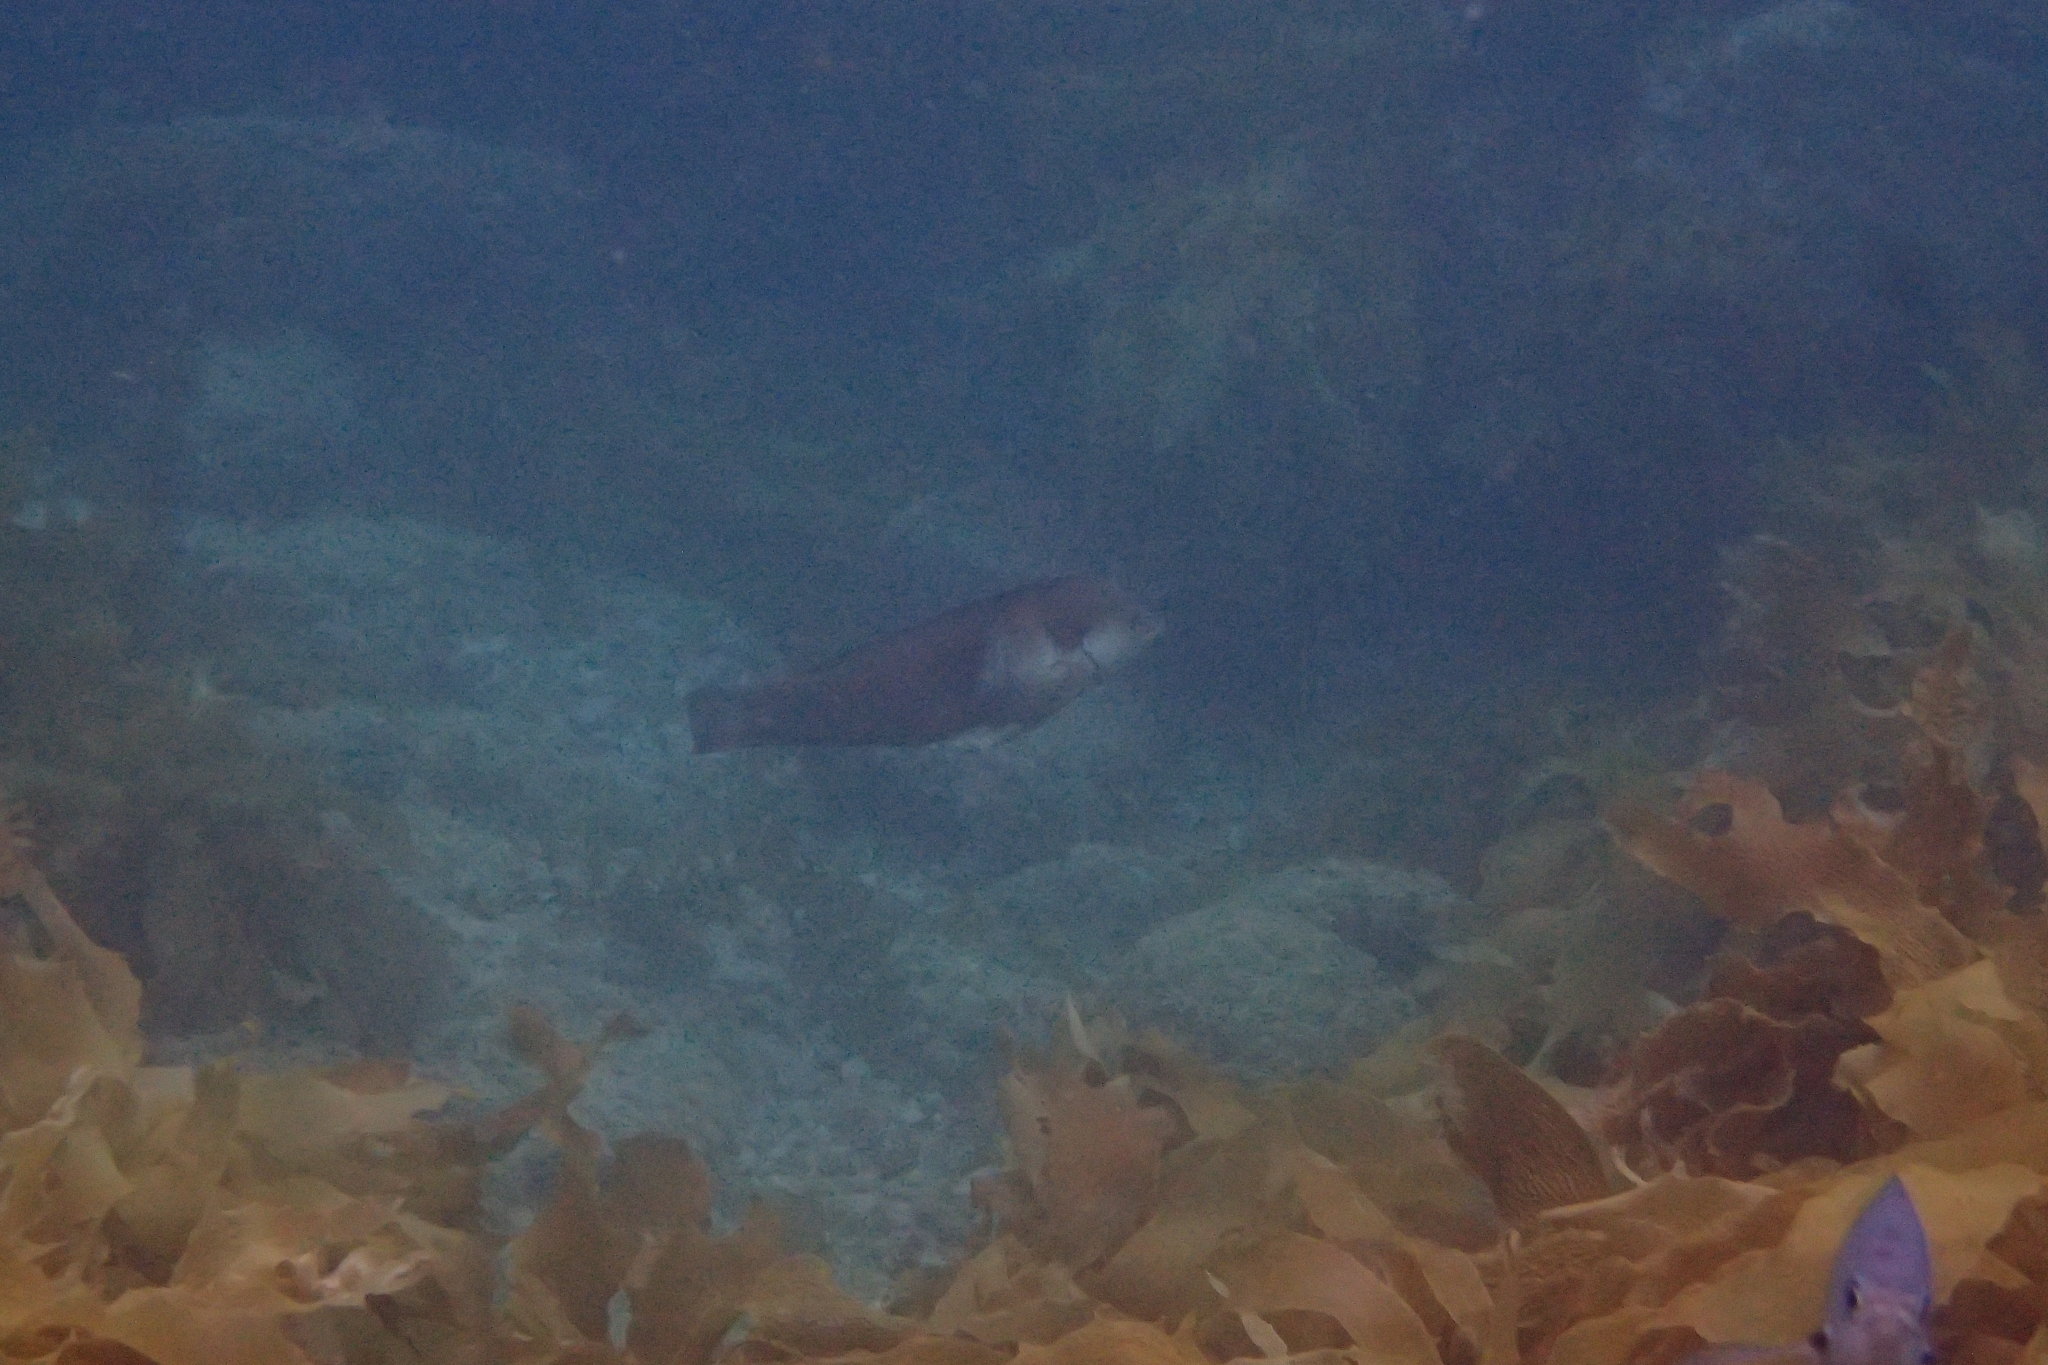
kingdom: Animalia
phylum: Chordata
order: Perciformes
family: Labridae
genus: Coris
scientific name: Coris sandeyeri
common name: Sandager's wrasse
